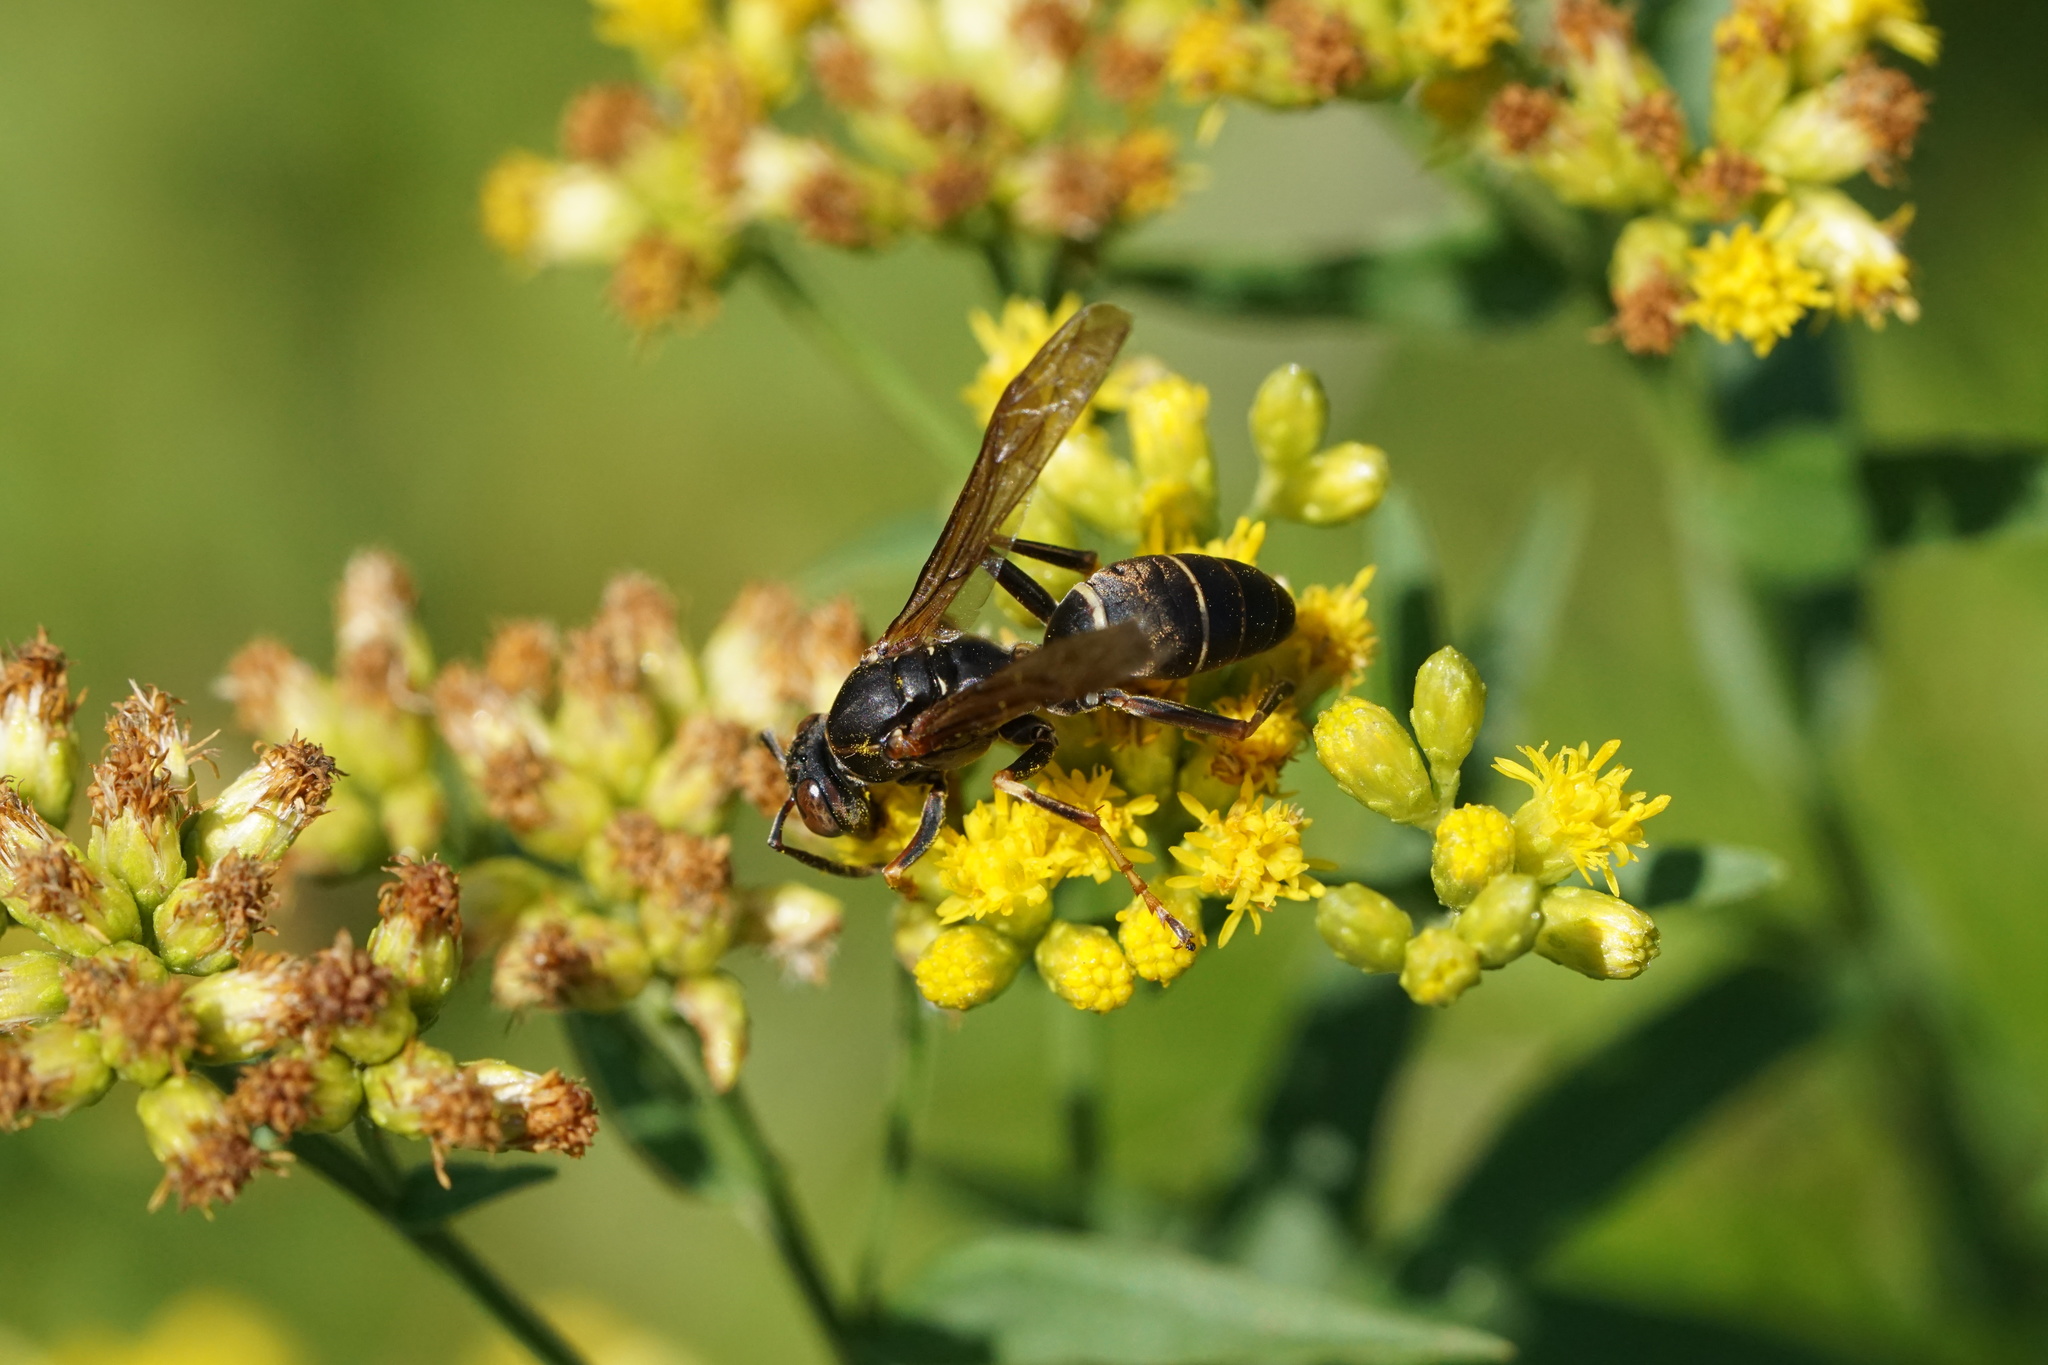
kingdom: Animalia
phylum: Arthropoda
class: Insecta
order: Hymenoptera
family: Eumenidae
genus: Polistes
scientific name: Polistes fuscatus
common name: Dark paper wasp
